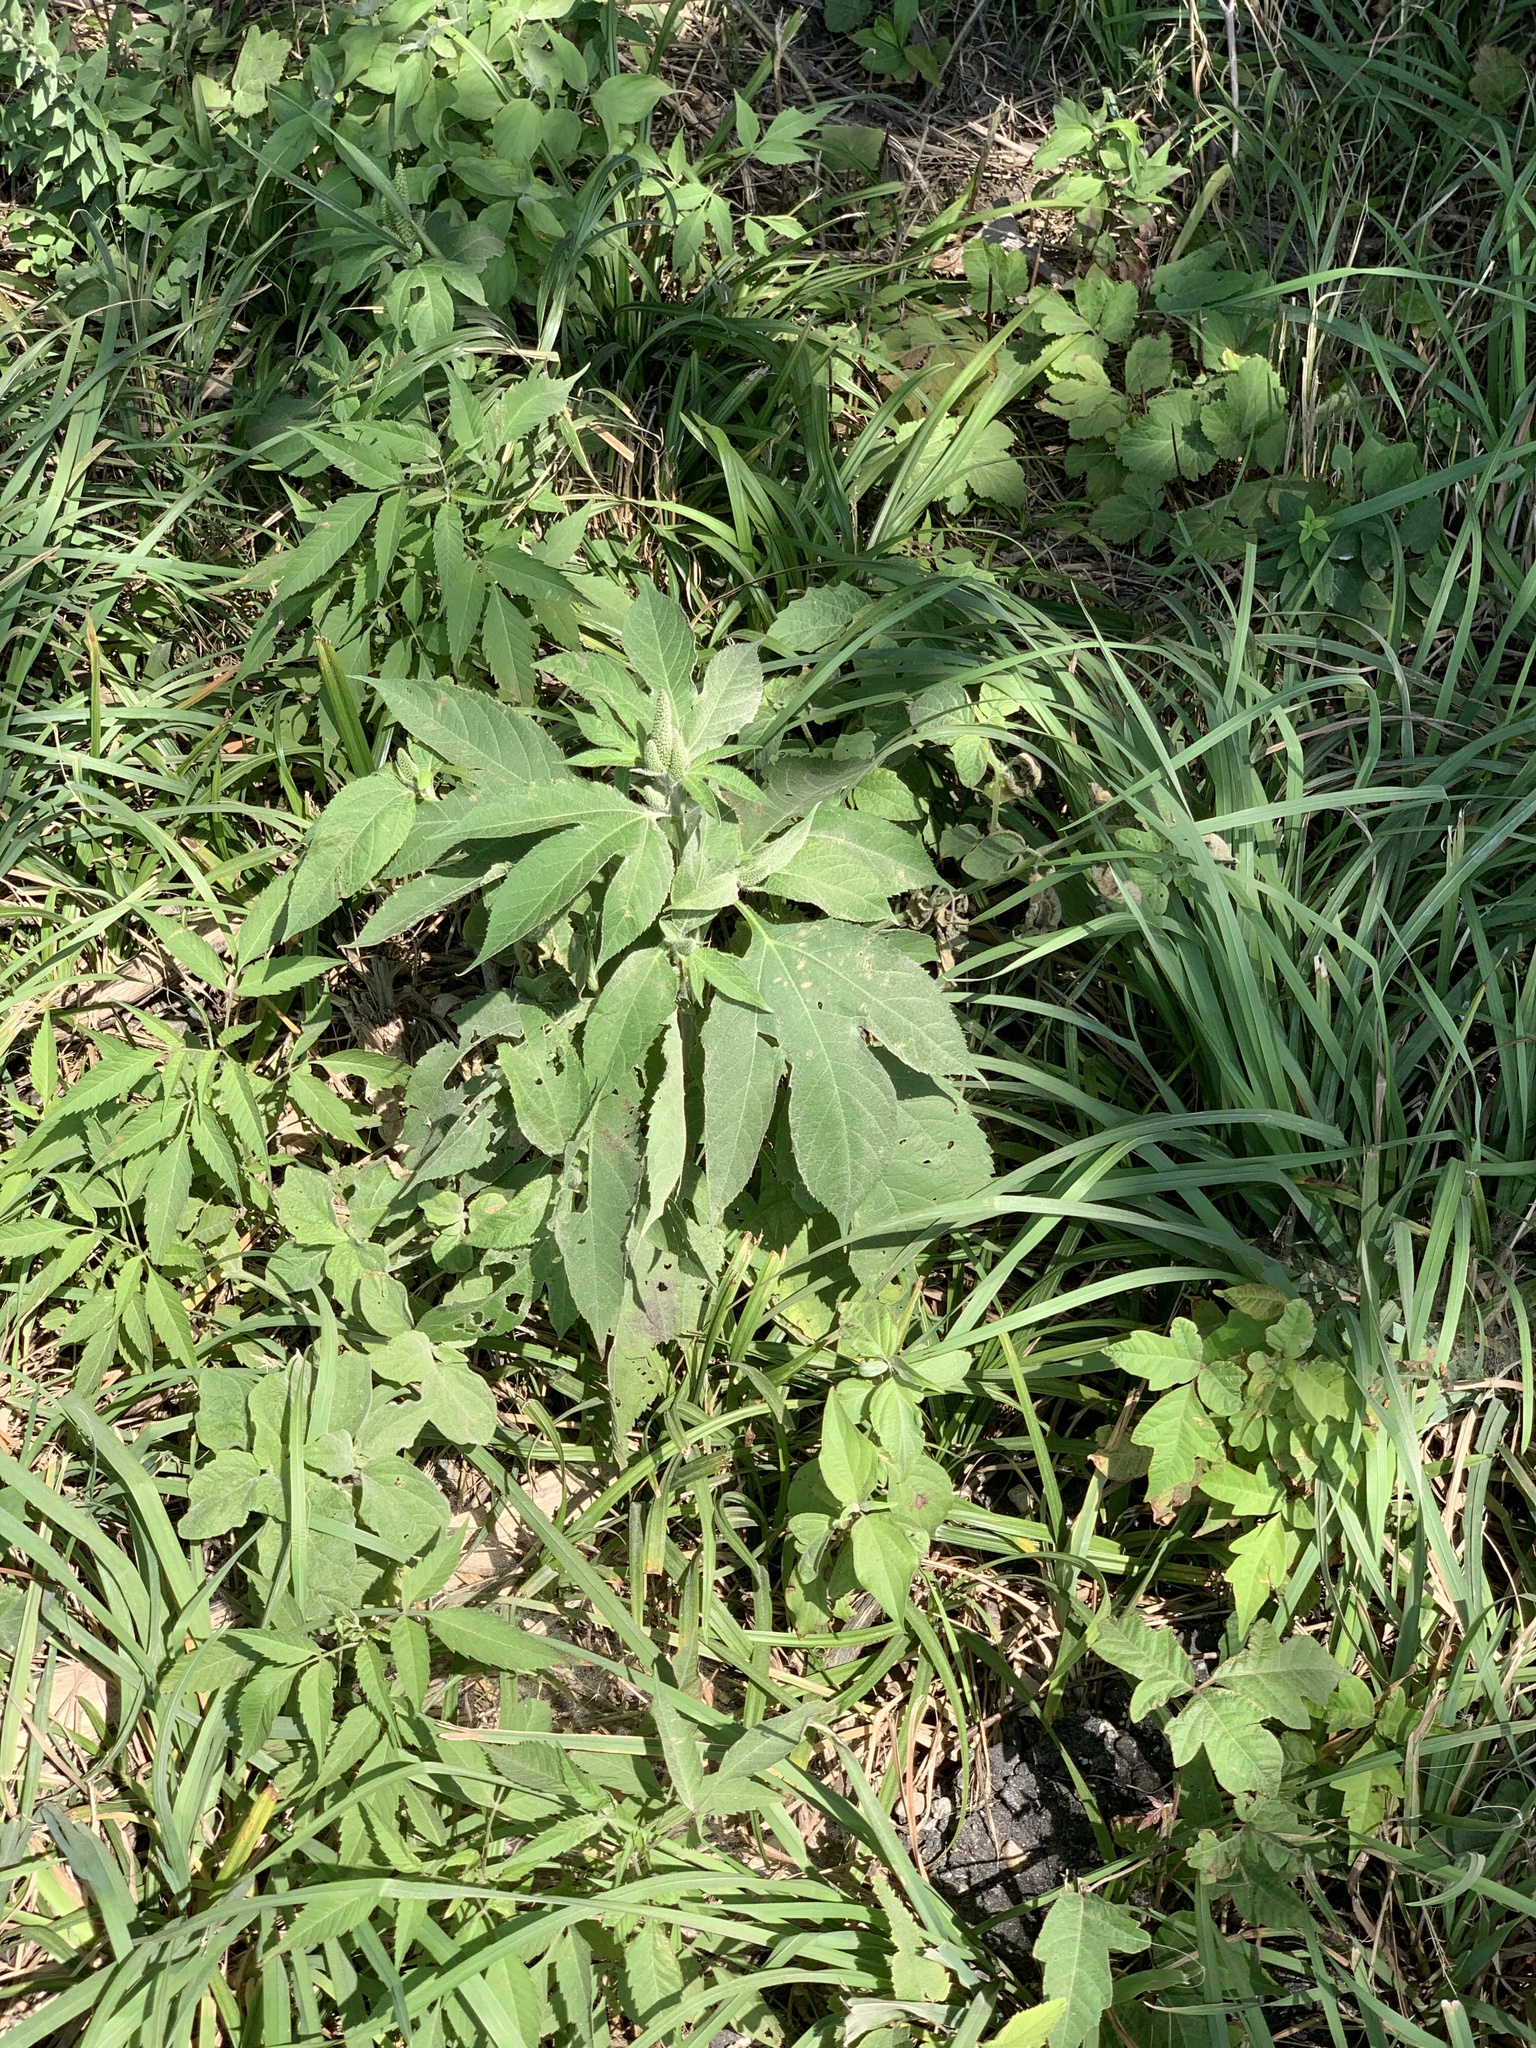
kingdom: Plantae
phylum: Tracheophyta
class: Magnoliopsida
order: Asterales
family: Asteraceae
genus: Ambrosia
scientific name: Ambrosia trifida
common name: Giant ragweed
